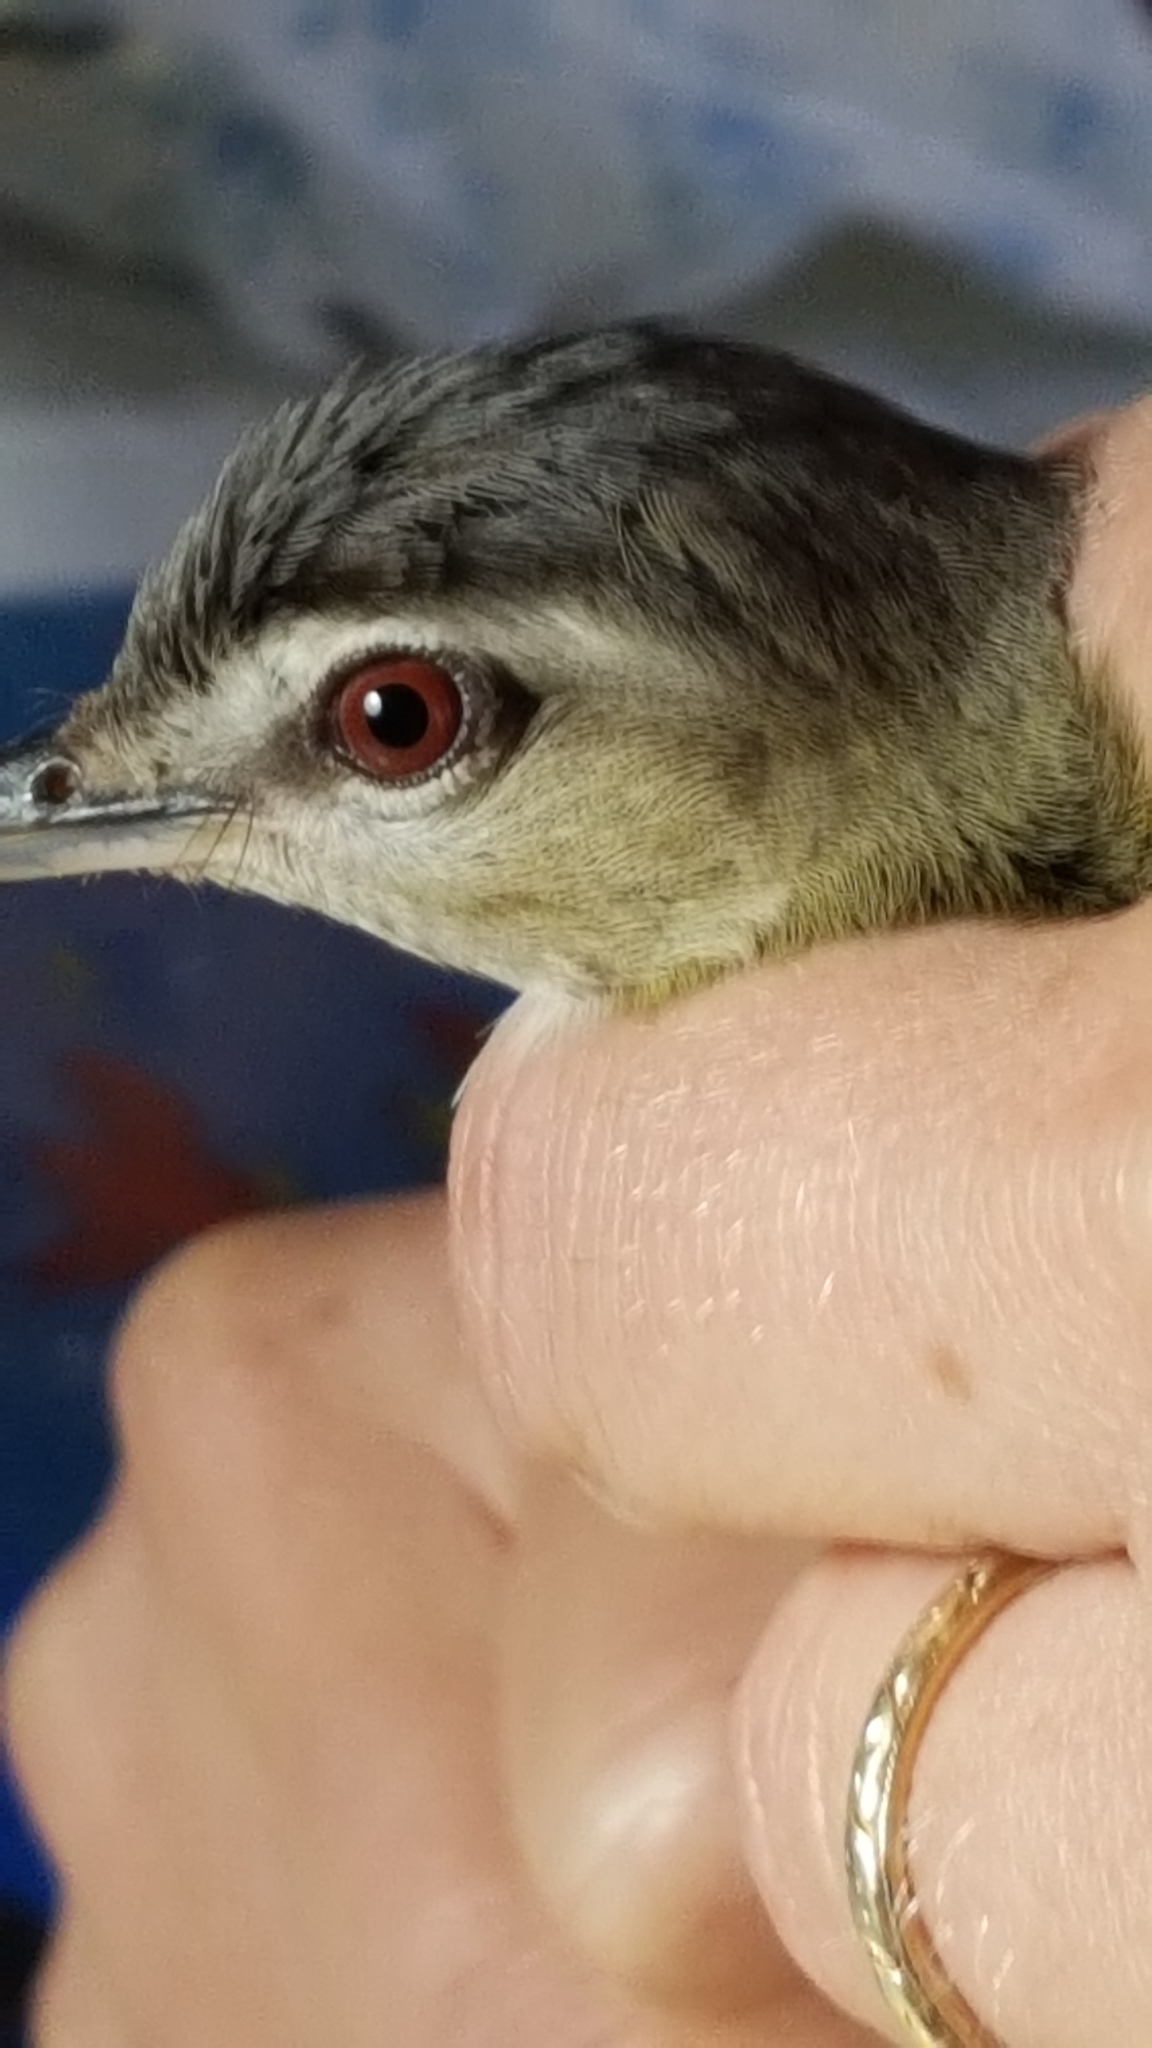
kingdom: Animalia
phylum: Chordata
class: Aves
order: Passeriformes
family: Vireonidae
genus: Vireo
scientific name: Vireo olivaceus
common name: Red-eyed vireo
